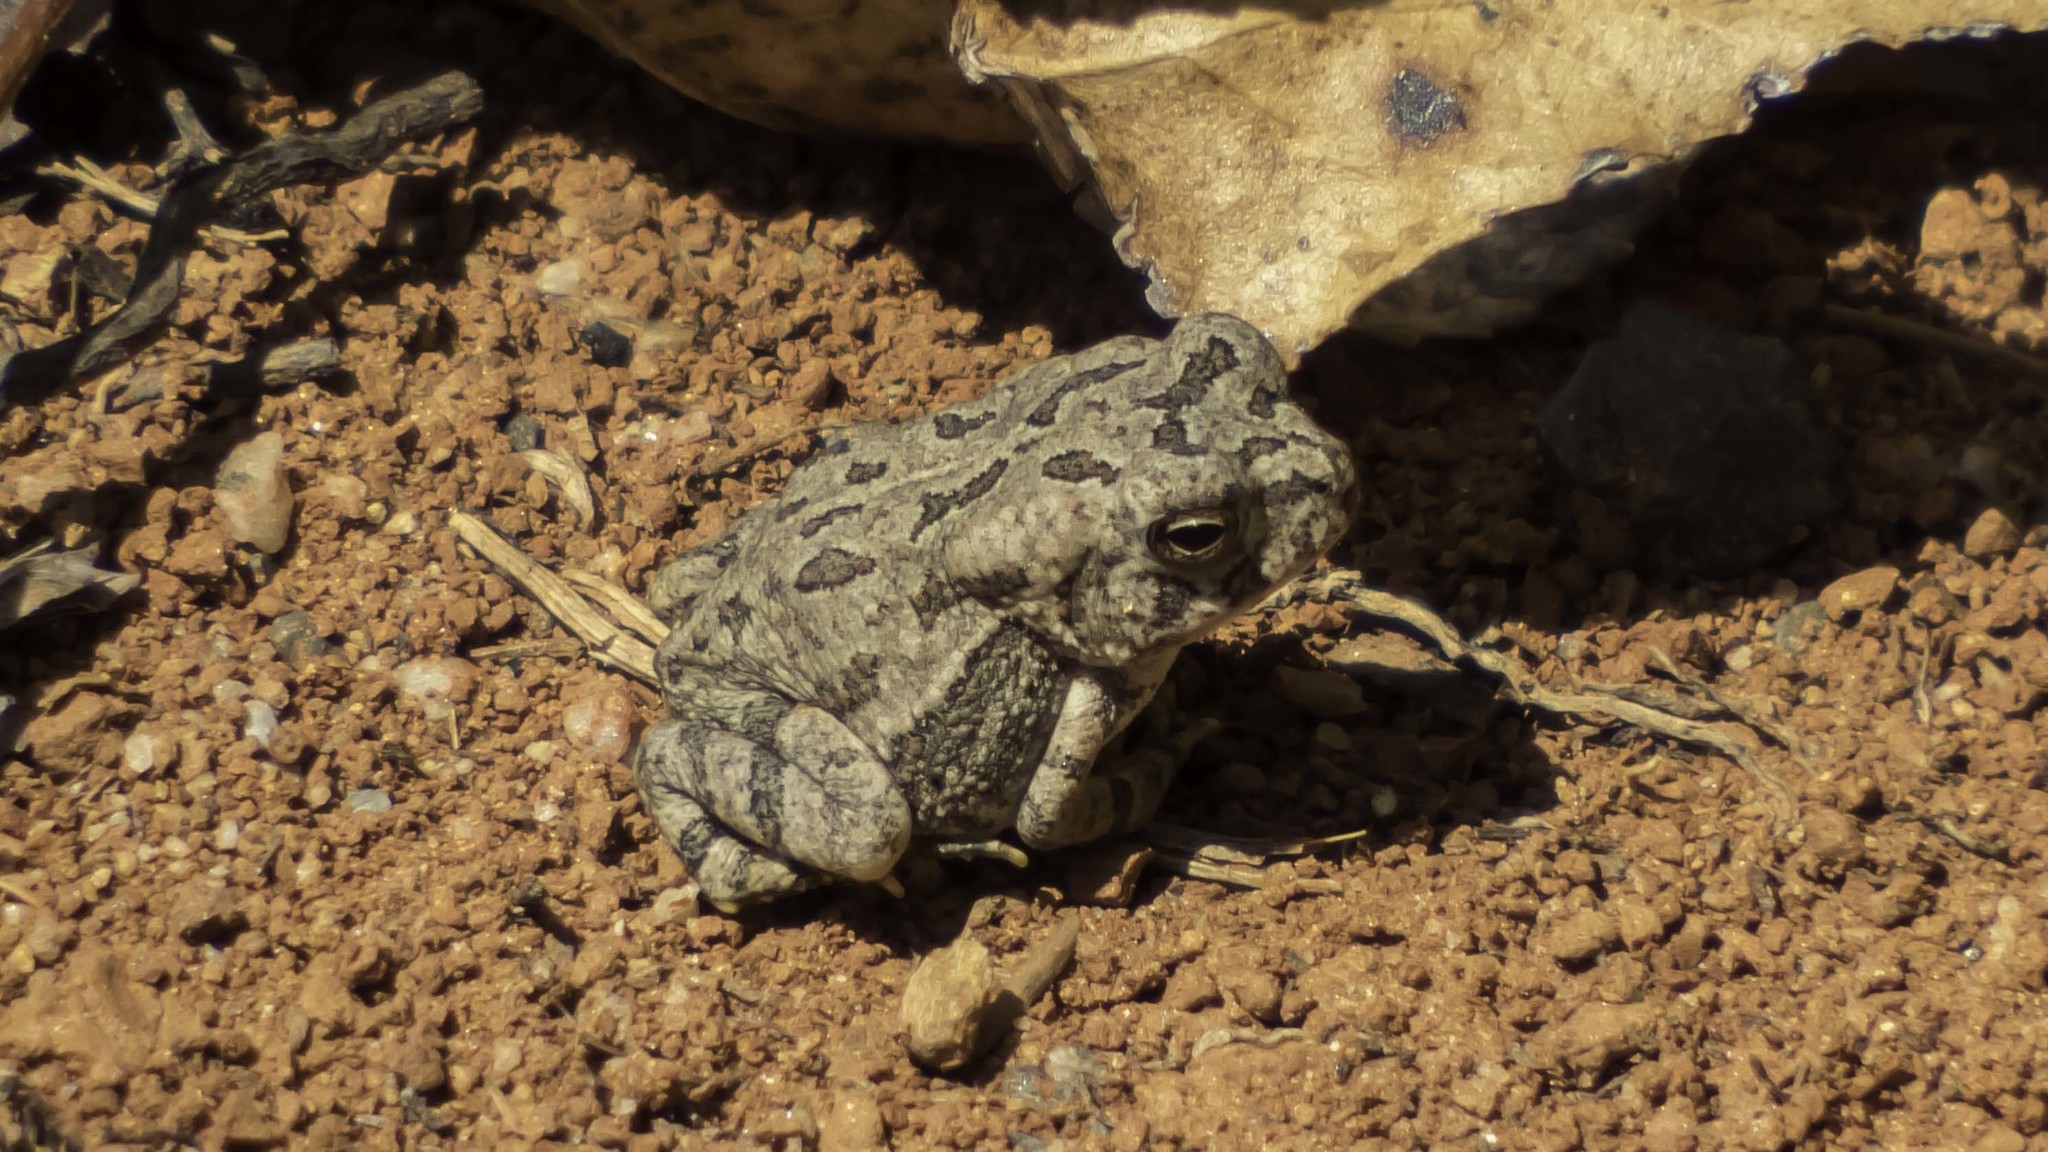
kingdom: Animalia
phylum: Chordata
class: Amphibia
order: Anura
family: Bufonidae
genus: Anaxyrus
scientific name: Anaxyrus fowleri
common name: Fowler's toad
